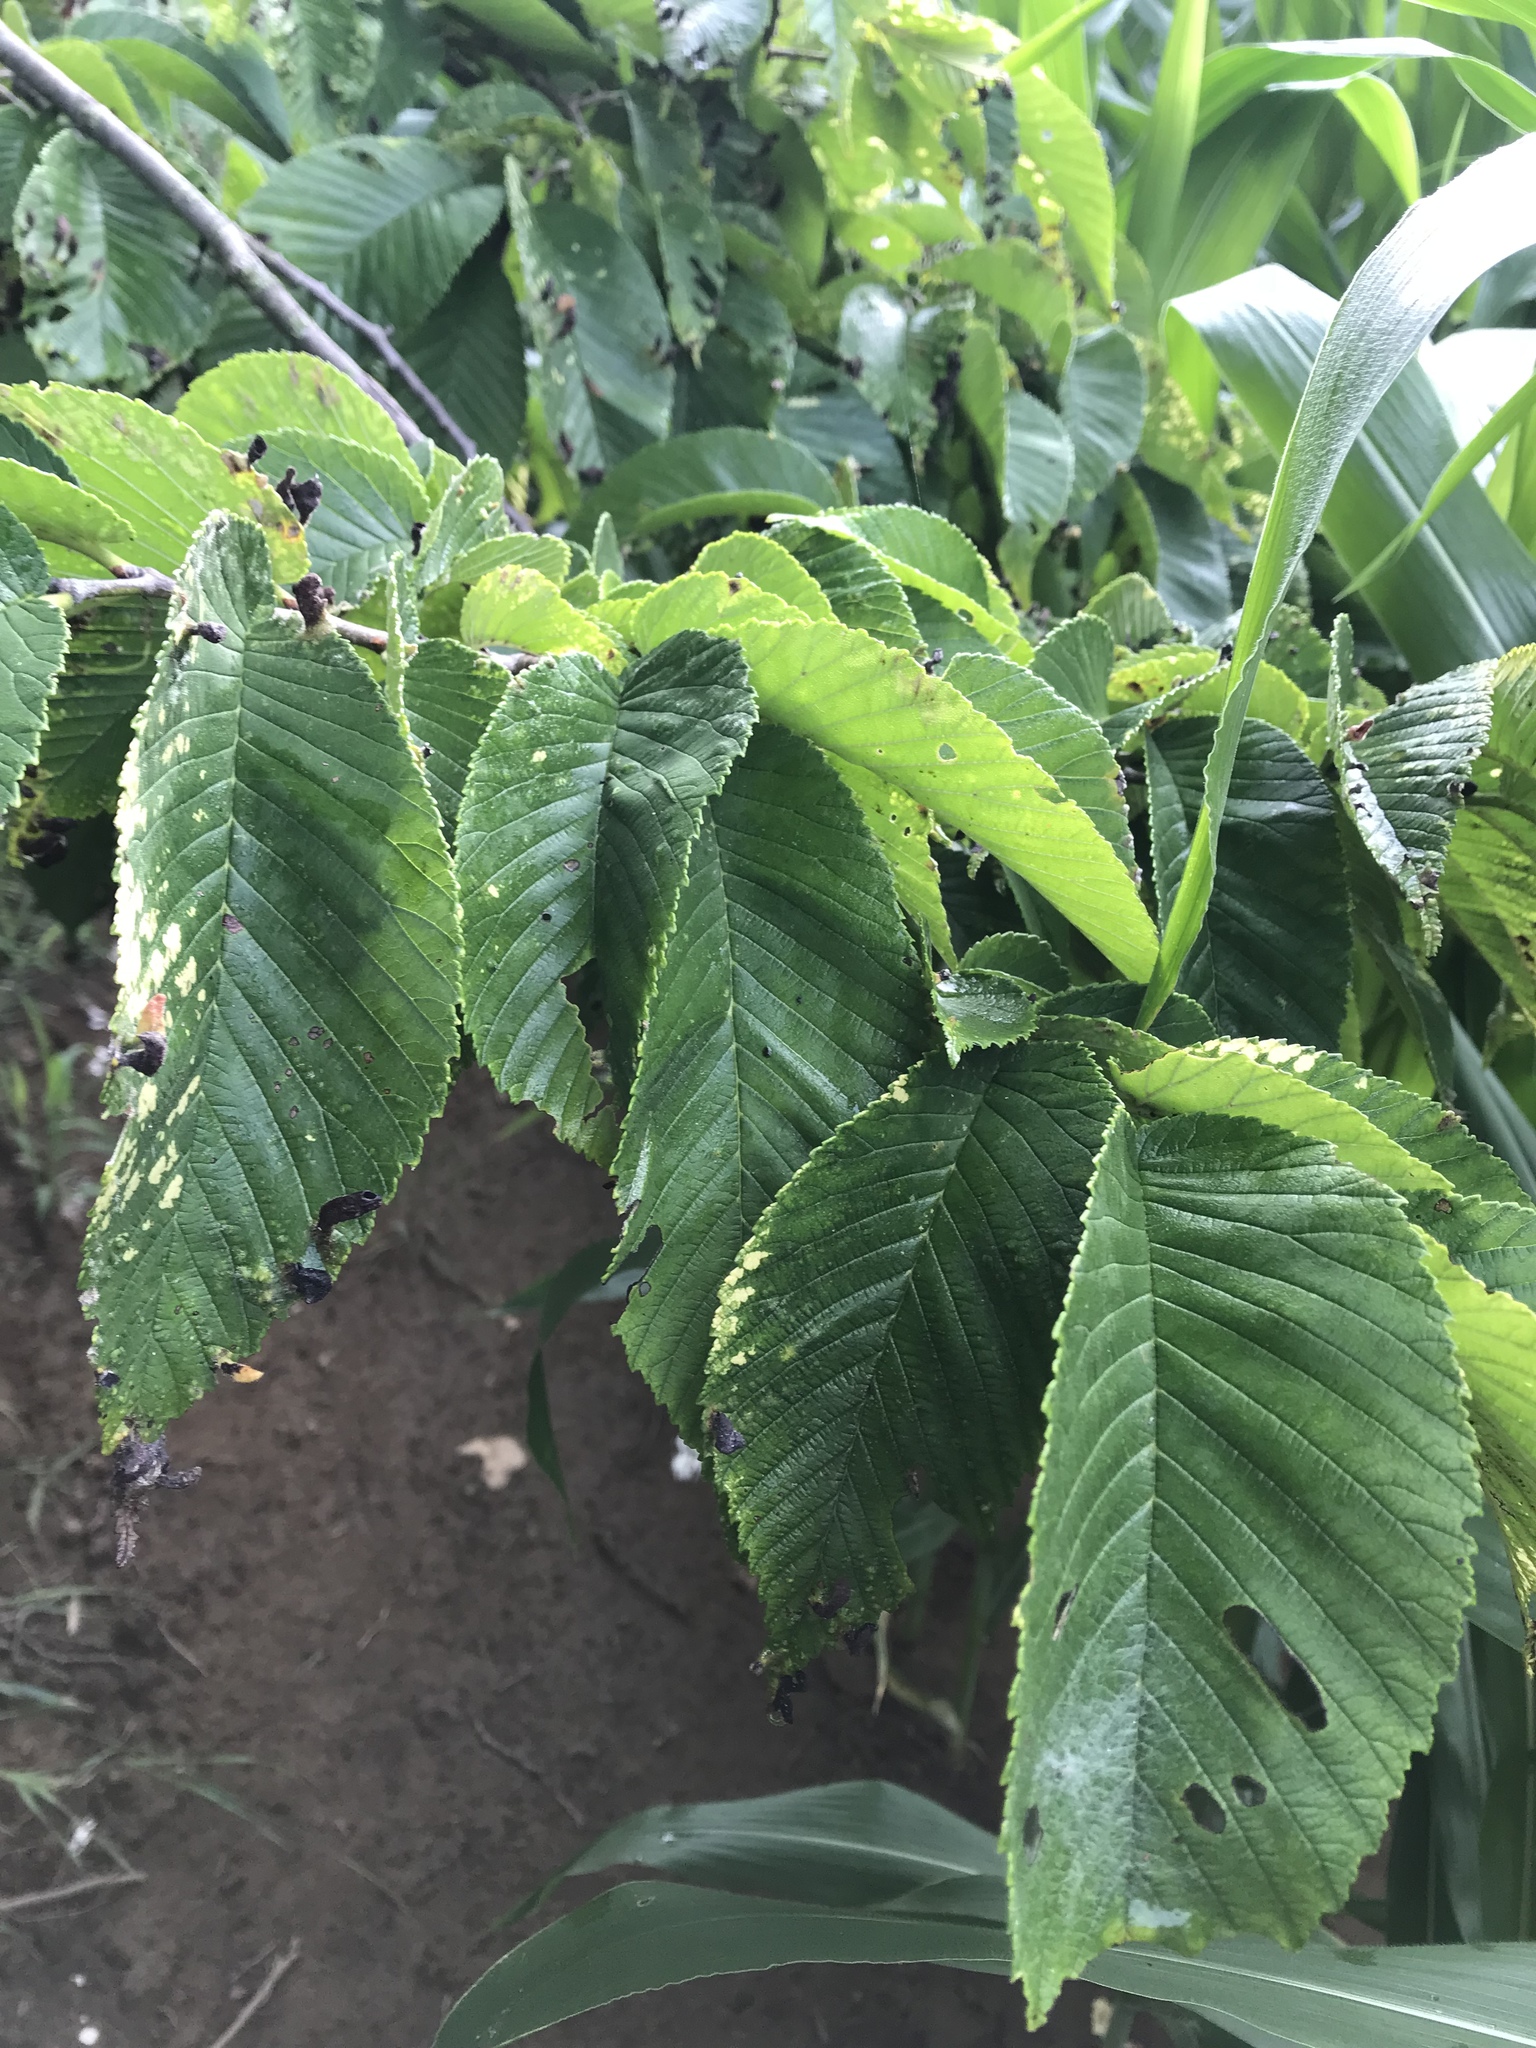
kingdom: Plantae
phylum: Tracheophyta
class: Magnoliopsida
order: Rosales
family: Ulmaceae
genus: Ulmus
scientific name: Ulmus rubra
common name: Slippery elm
